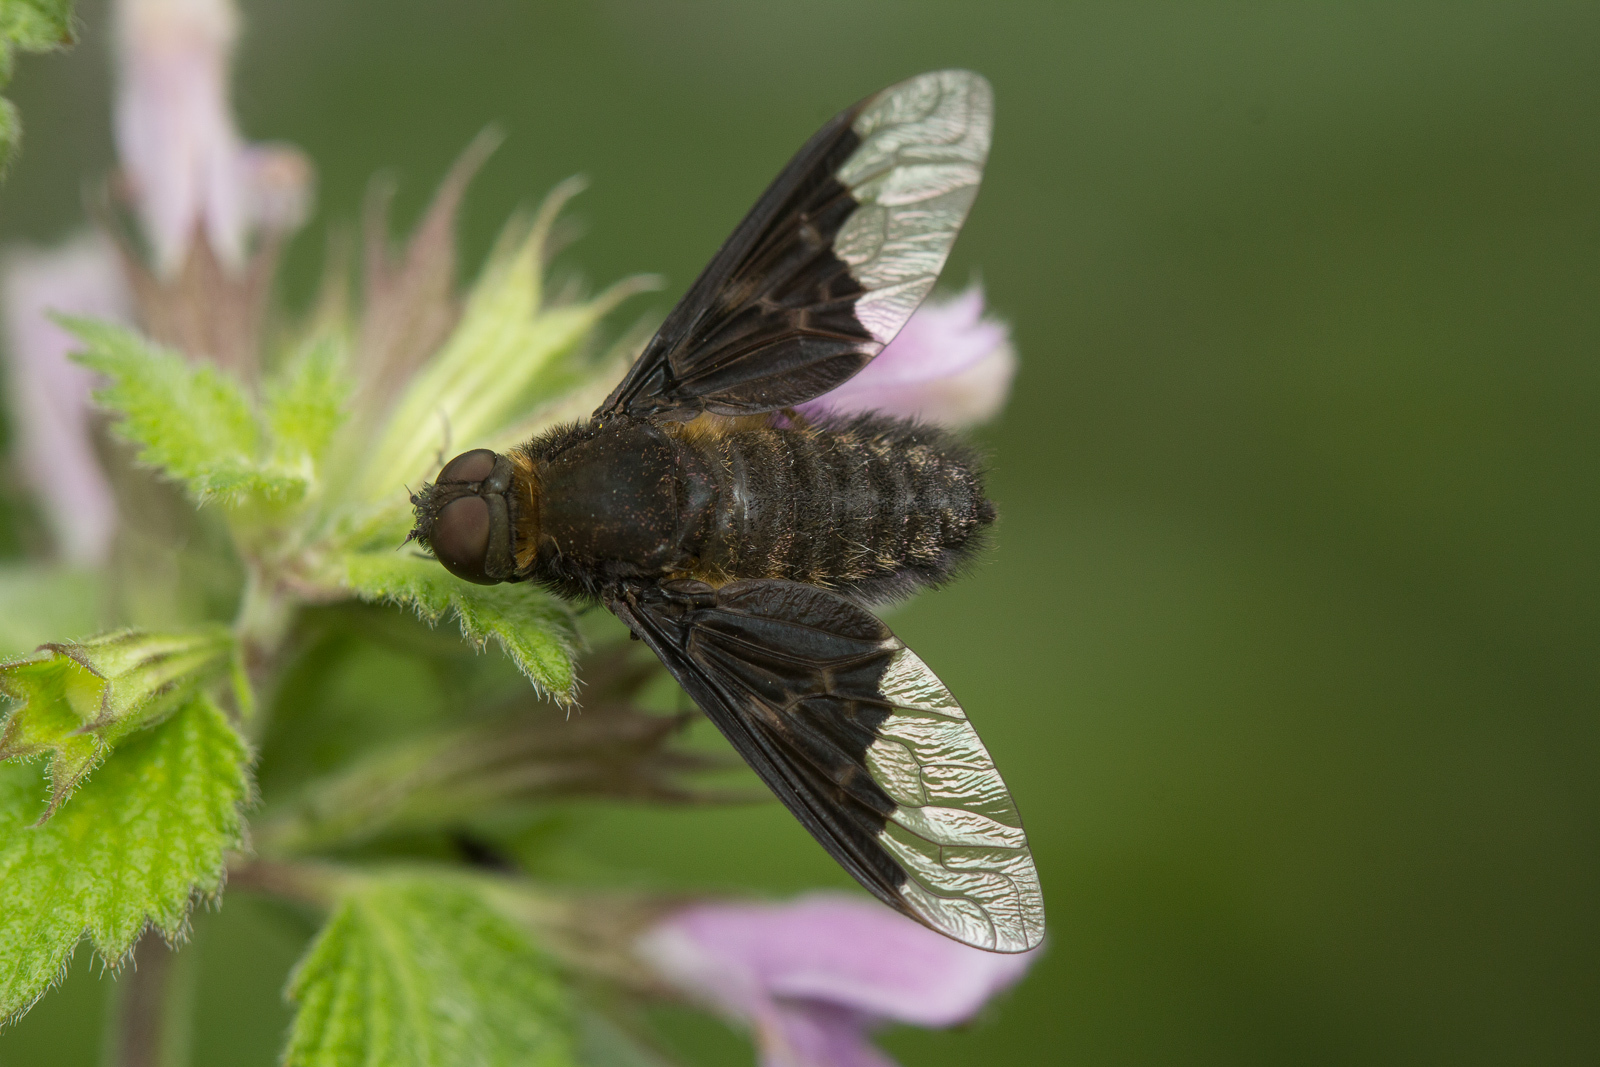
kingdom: Animalia
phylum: Arthropoda
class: Insecta
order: Diptera
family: Bombyliidae
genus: Hemipenthes
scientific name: Hemipenthes morio
